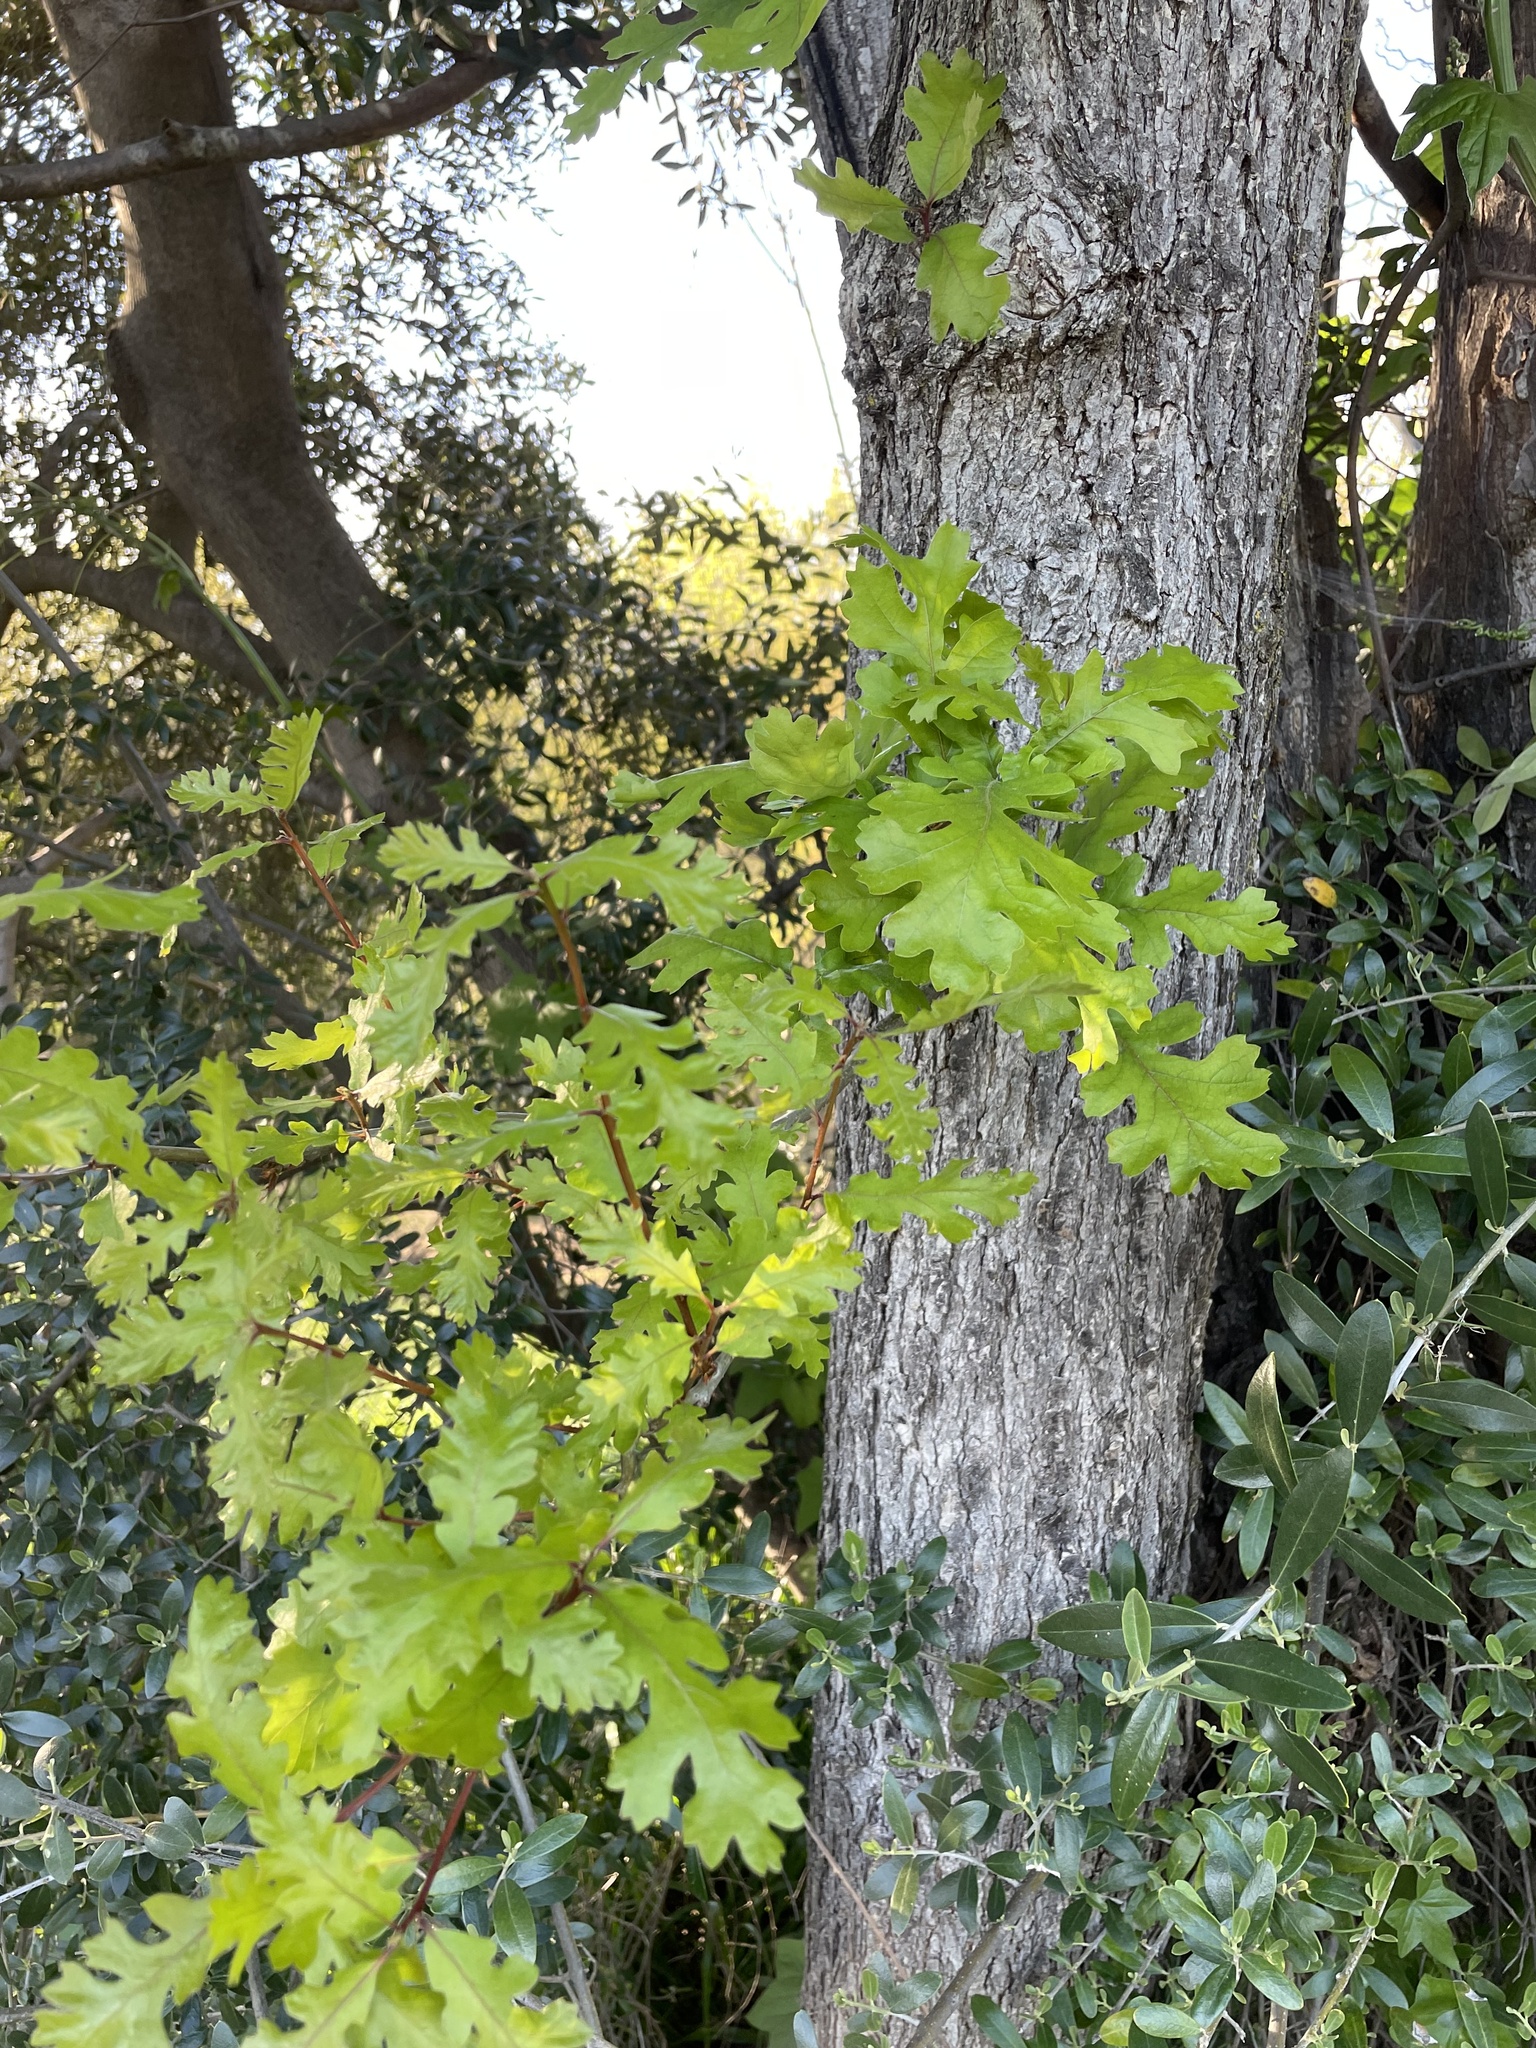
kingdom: Plantae
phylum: Tracheophyta
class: Magnoliopsida
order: Fagales
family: Fagaceae
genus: Quercus
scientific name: Quercus lobata
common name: Valley oak
